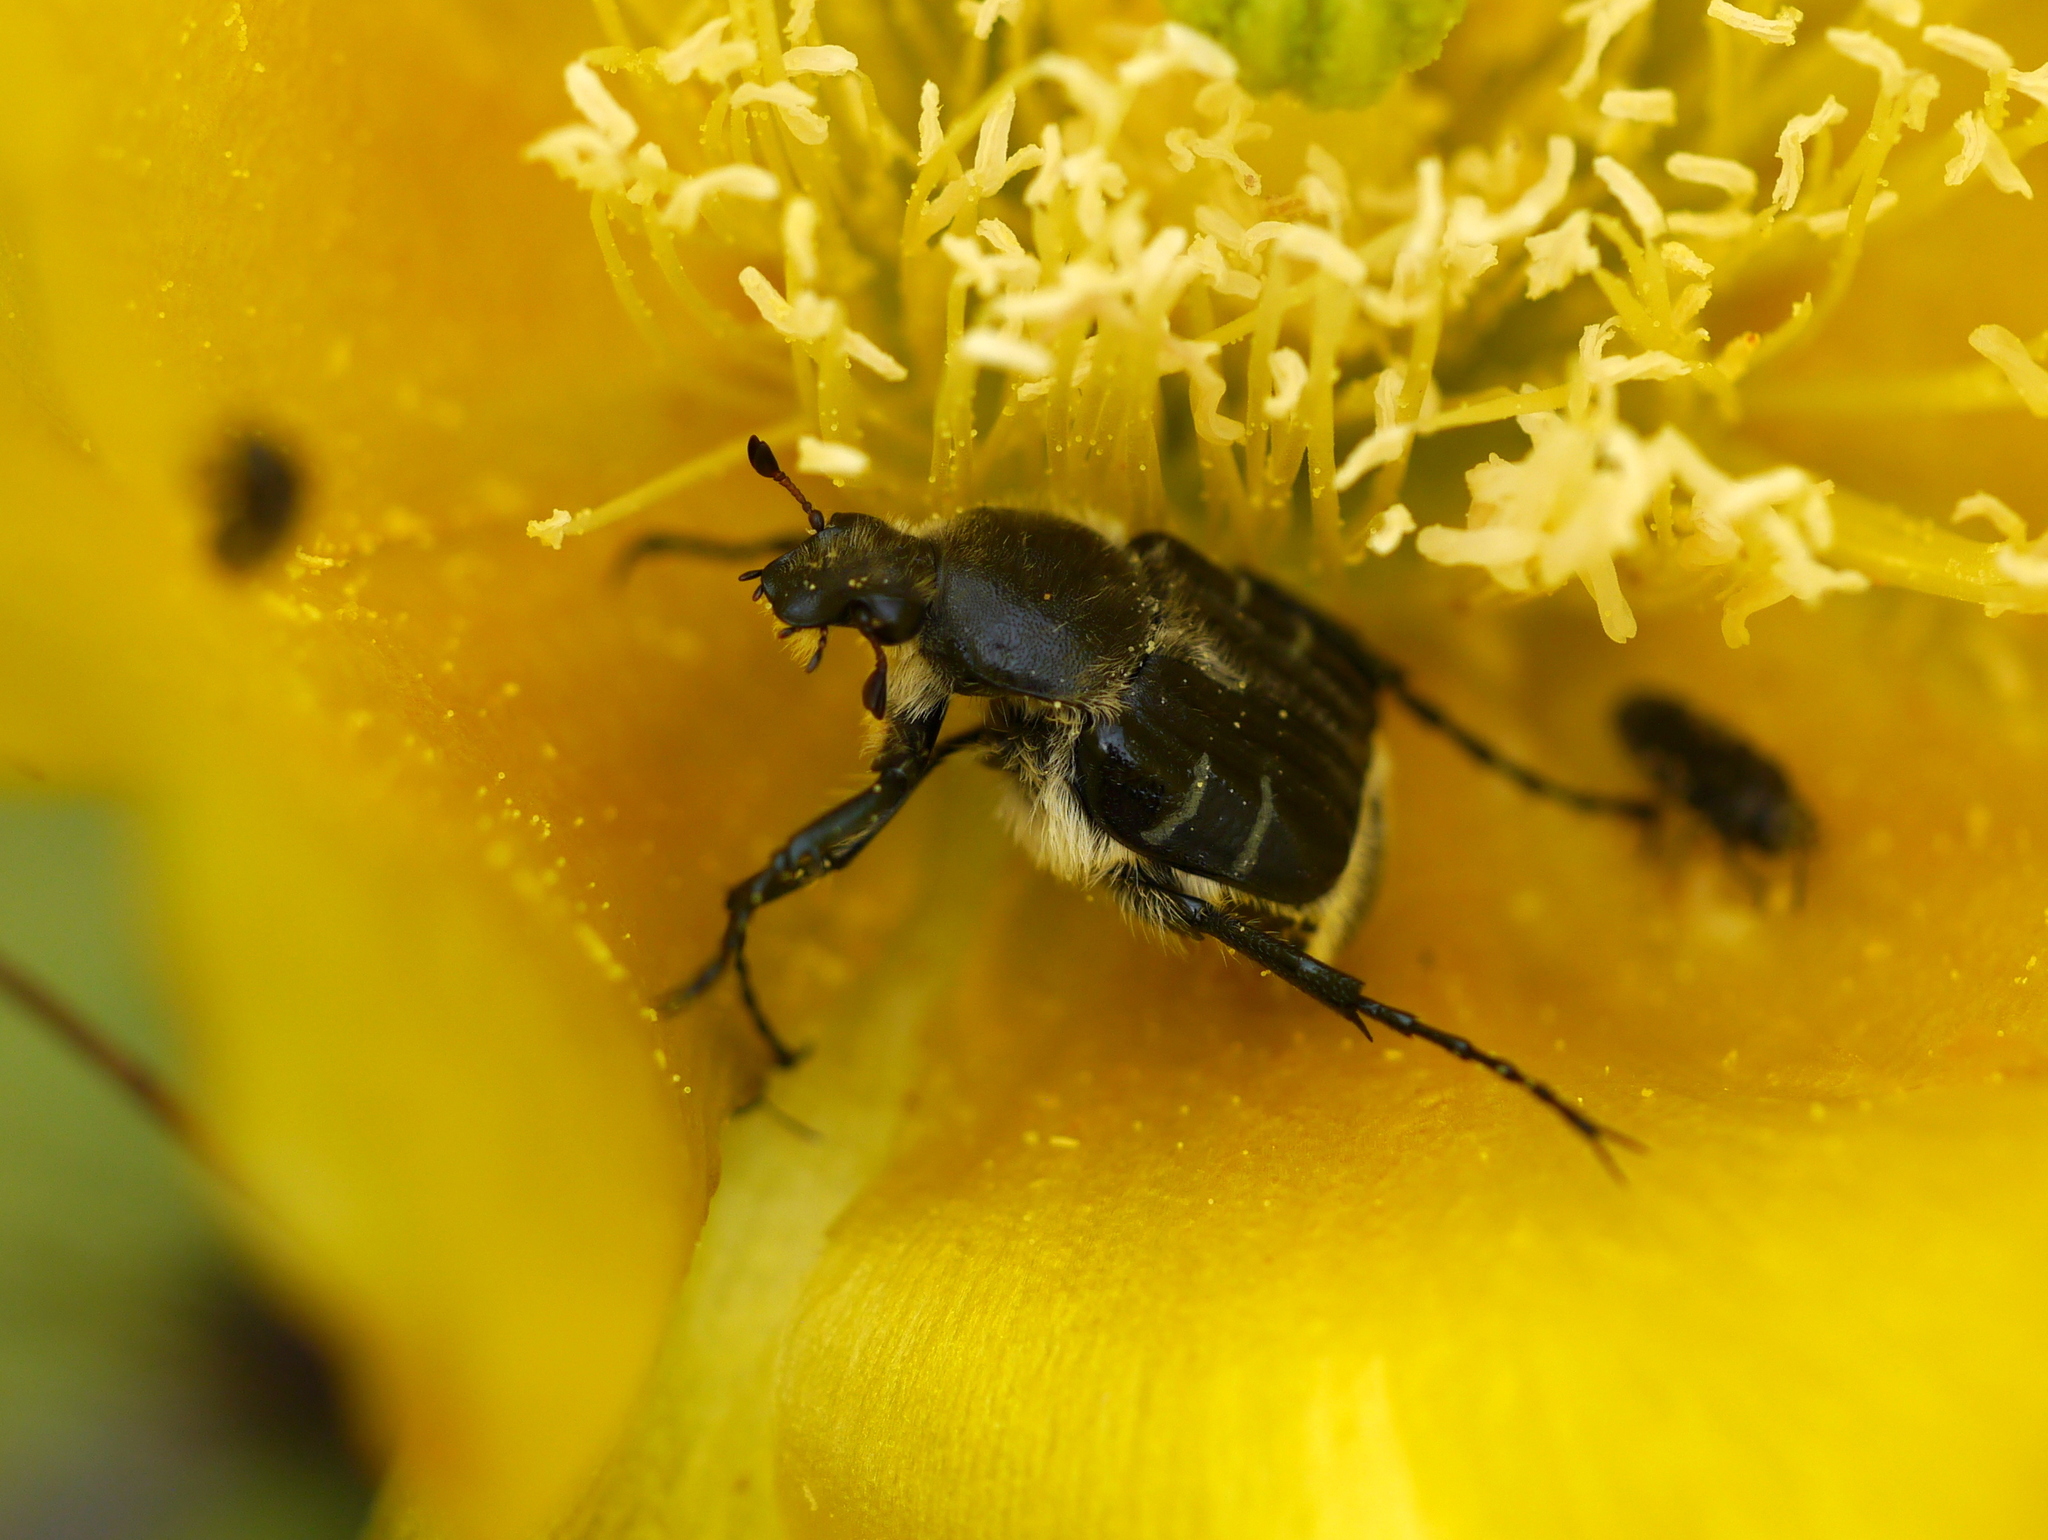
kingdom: Animalia
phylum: Arthropoda
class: Insecta
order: Coleoptera
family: Scarabaeidae
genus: Trichiotinus
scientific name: Trichiotinus texanus
